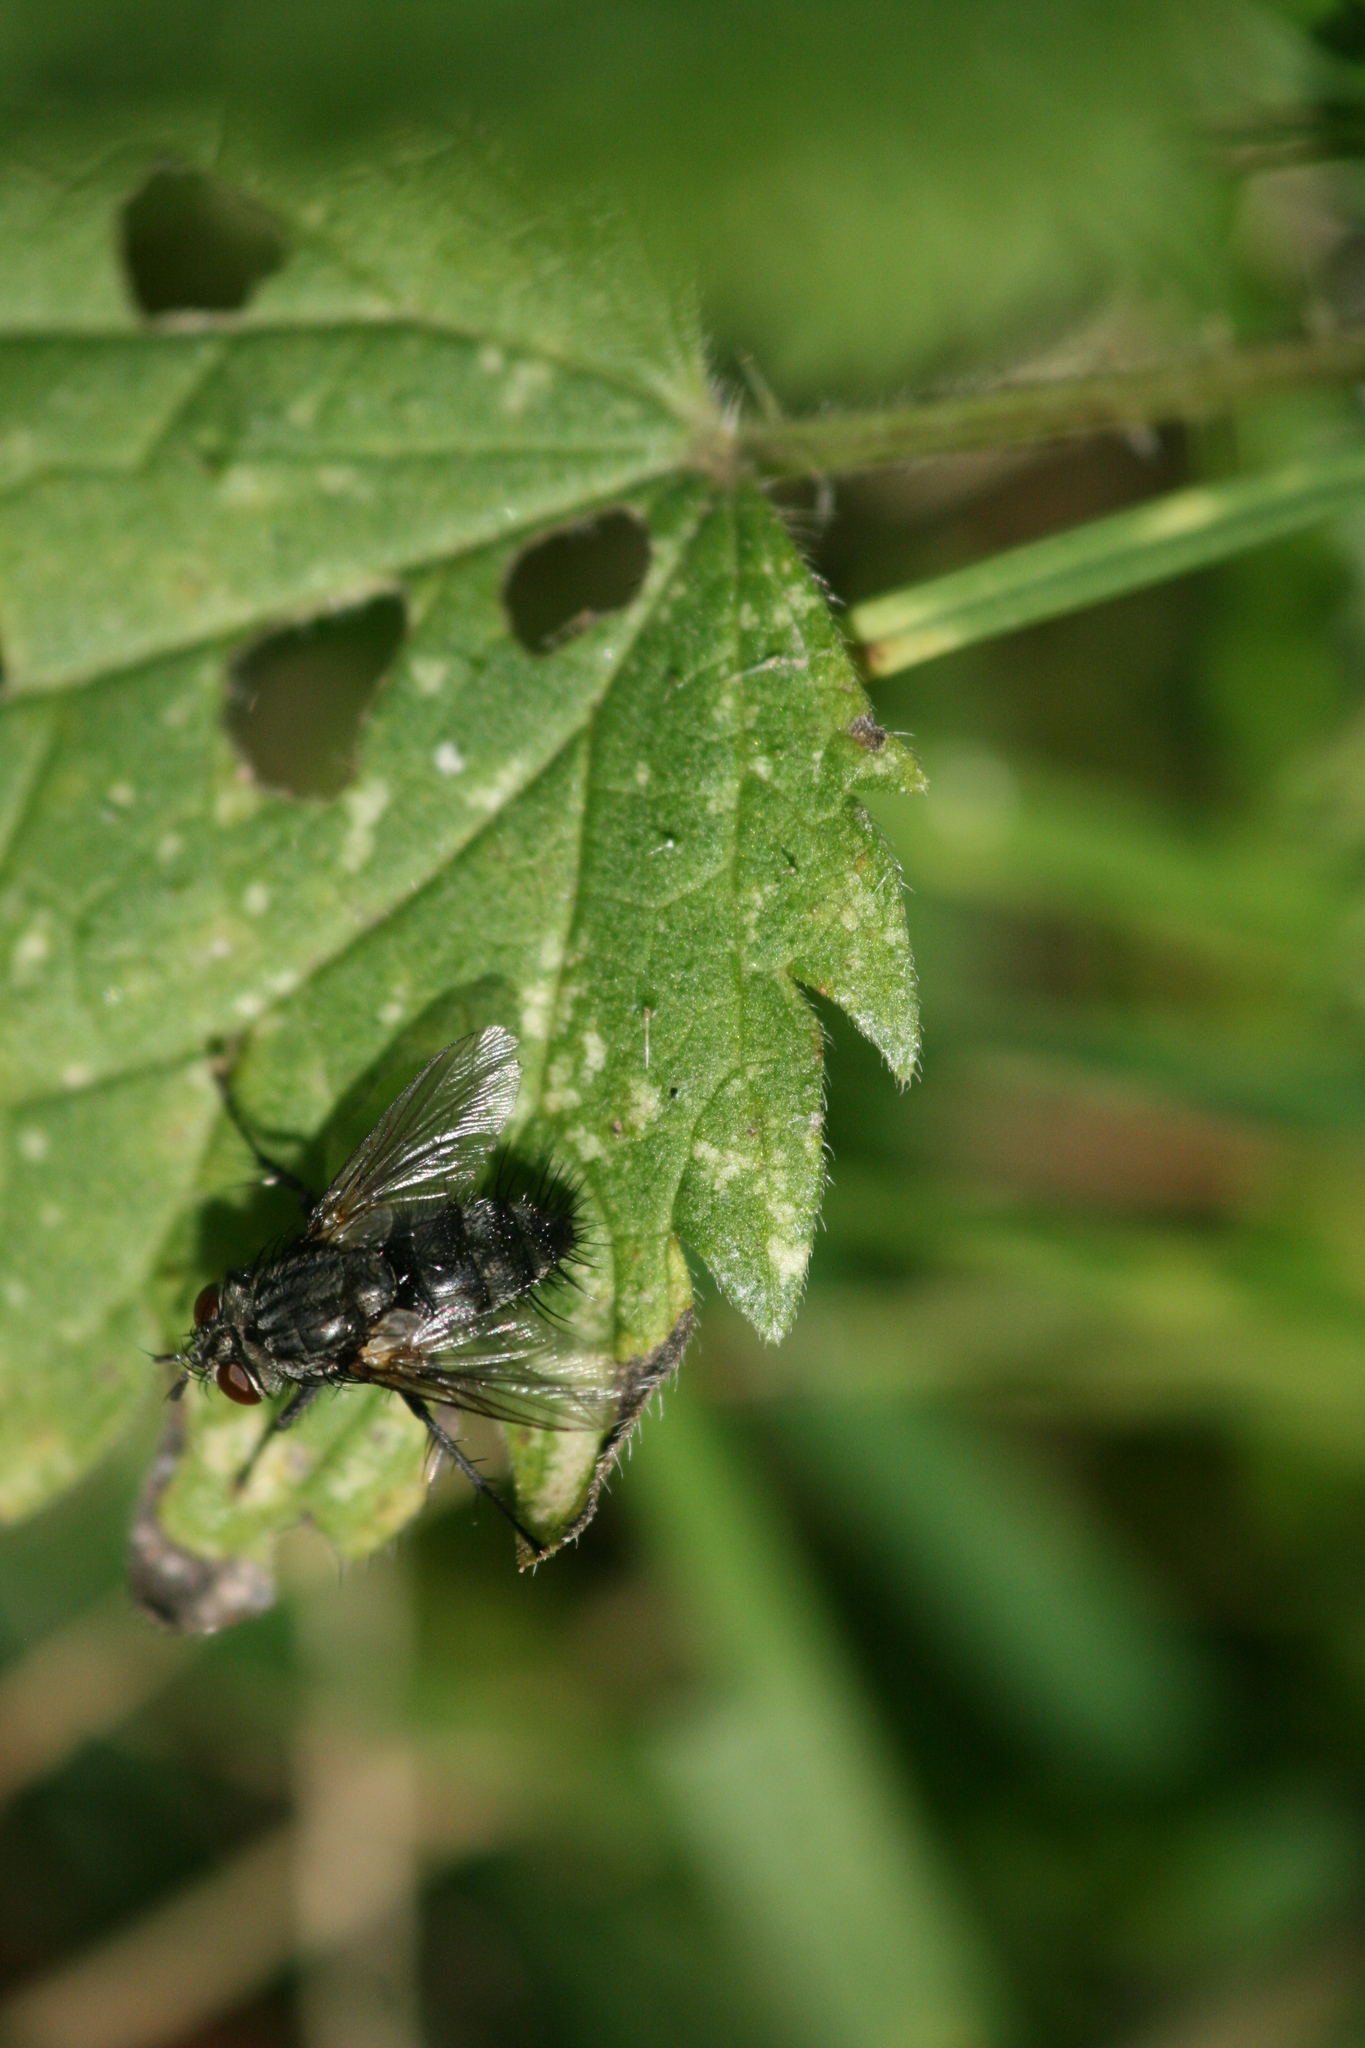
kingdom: Animalia
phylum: Arthropoda
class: Insecta
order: Diptera
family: Tachinidae
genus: Voria
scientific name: Voria ruralis
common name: Parasitic fly
